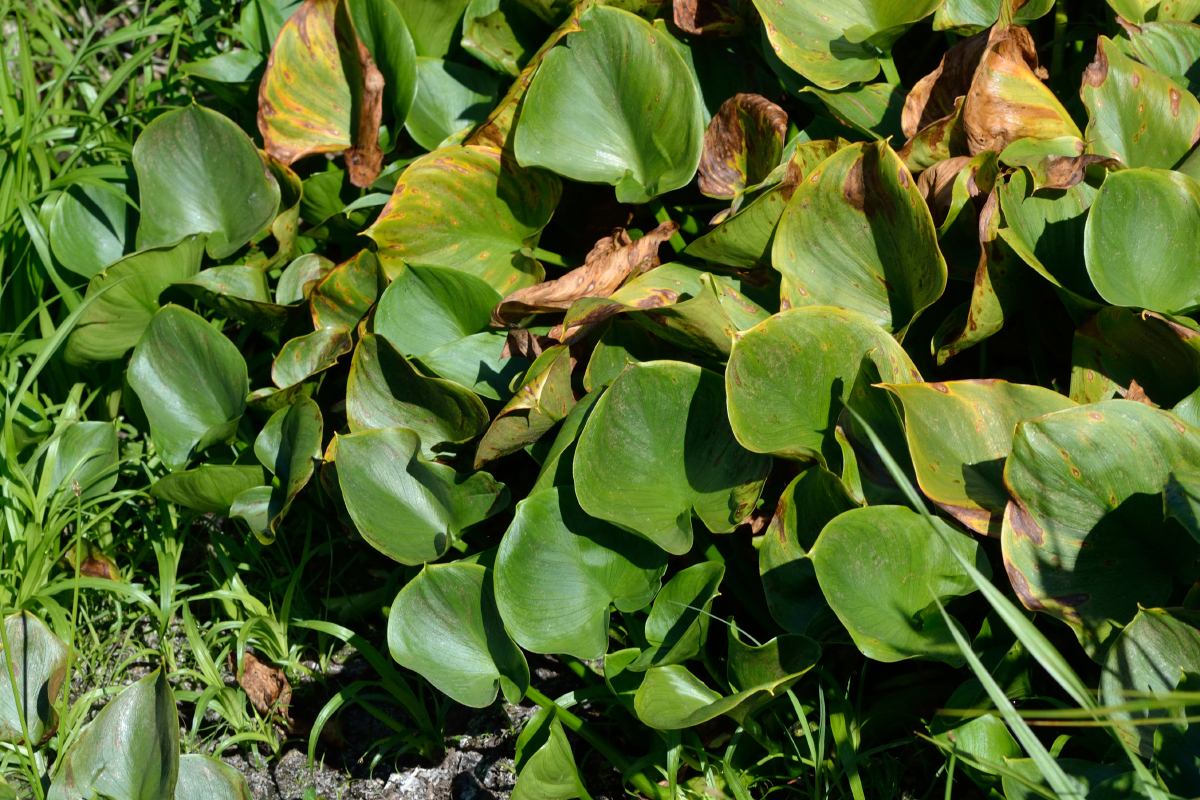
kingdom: Plantae
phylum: Tracheophyta
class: Liliopsida
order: Alismatales
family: Araceae
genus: Calla
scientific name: Calla palustris
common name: Bog arum
